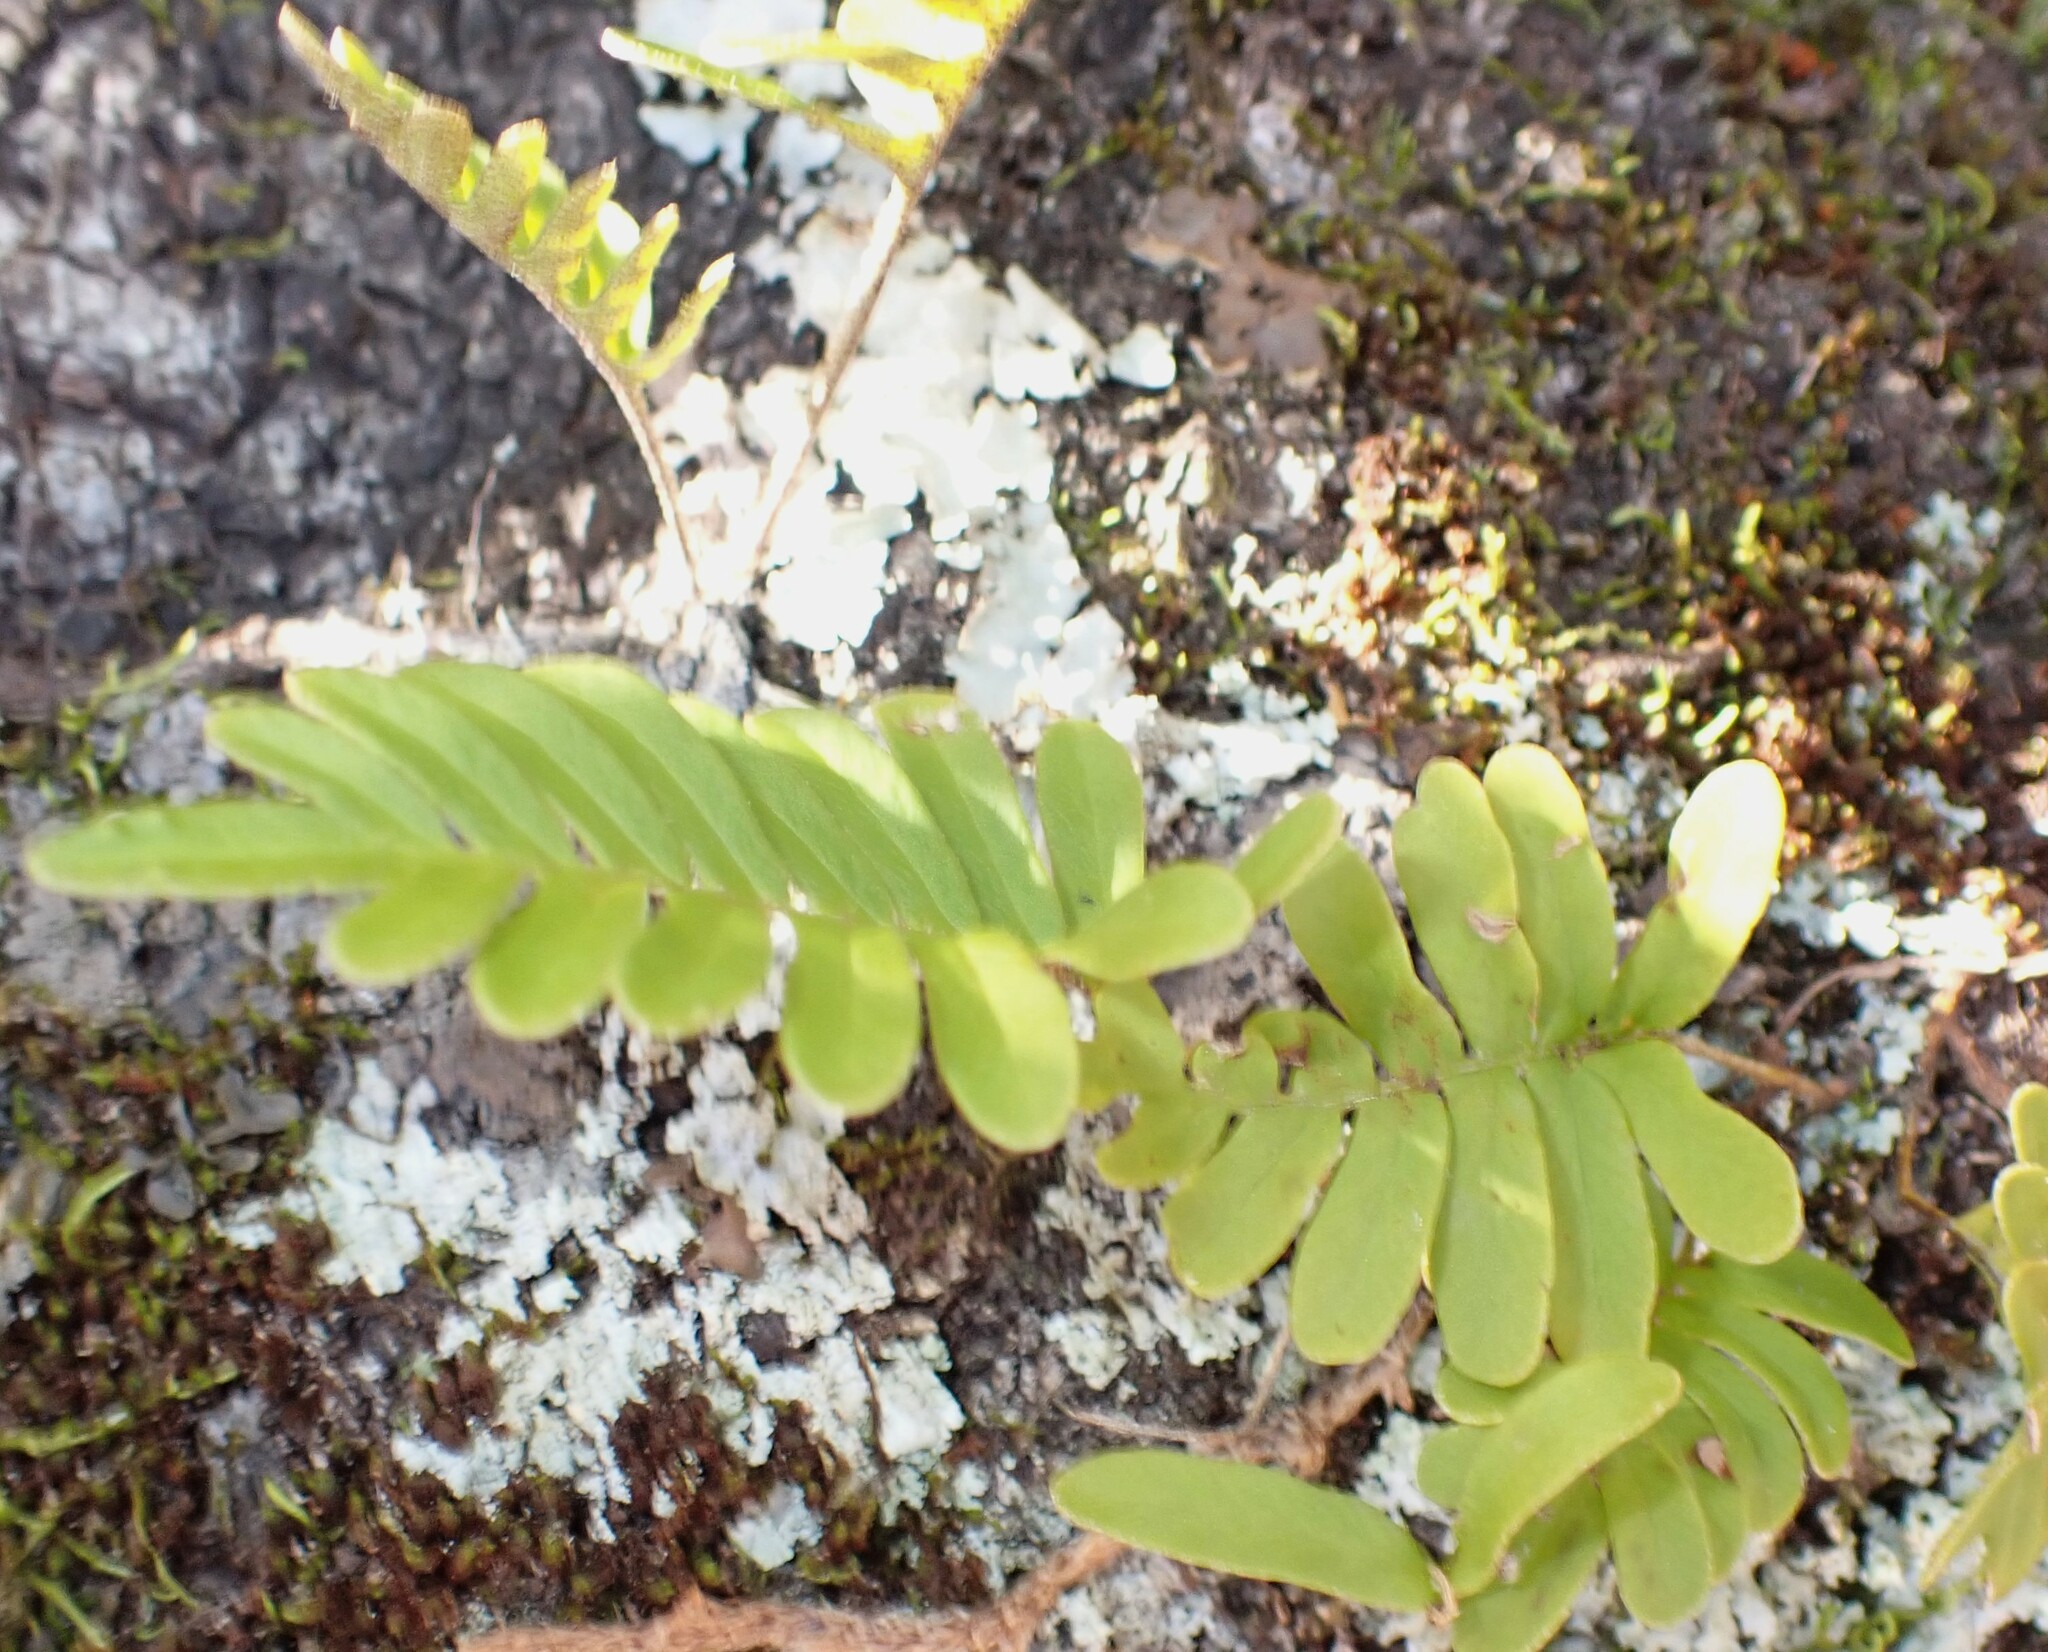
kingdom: Plantae
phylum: Tracheophyta
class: Polypodiopsida
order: Polypodiales
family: Polypodiaceae
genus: Pleopeltis
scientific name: Pleopeltis michauxiana
